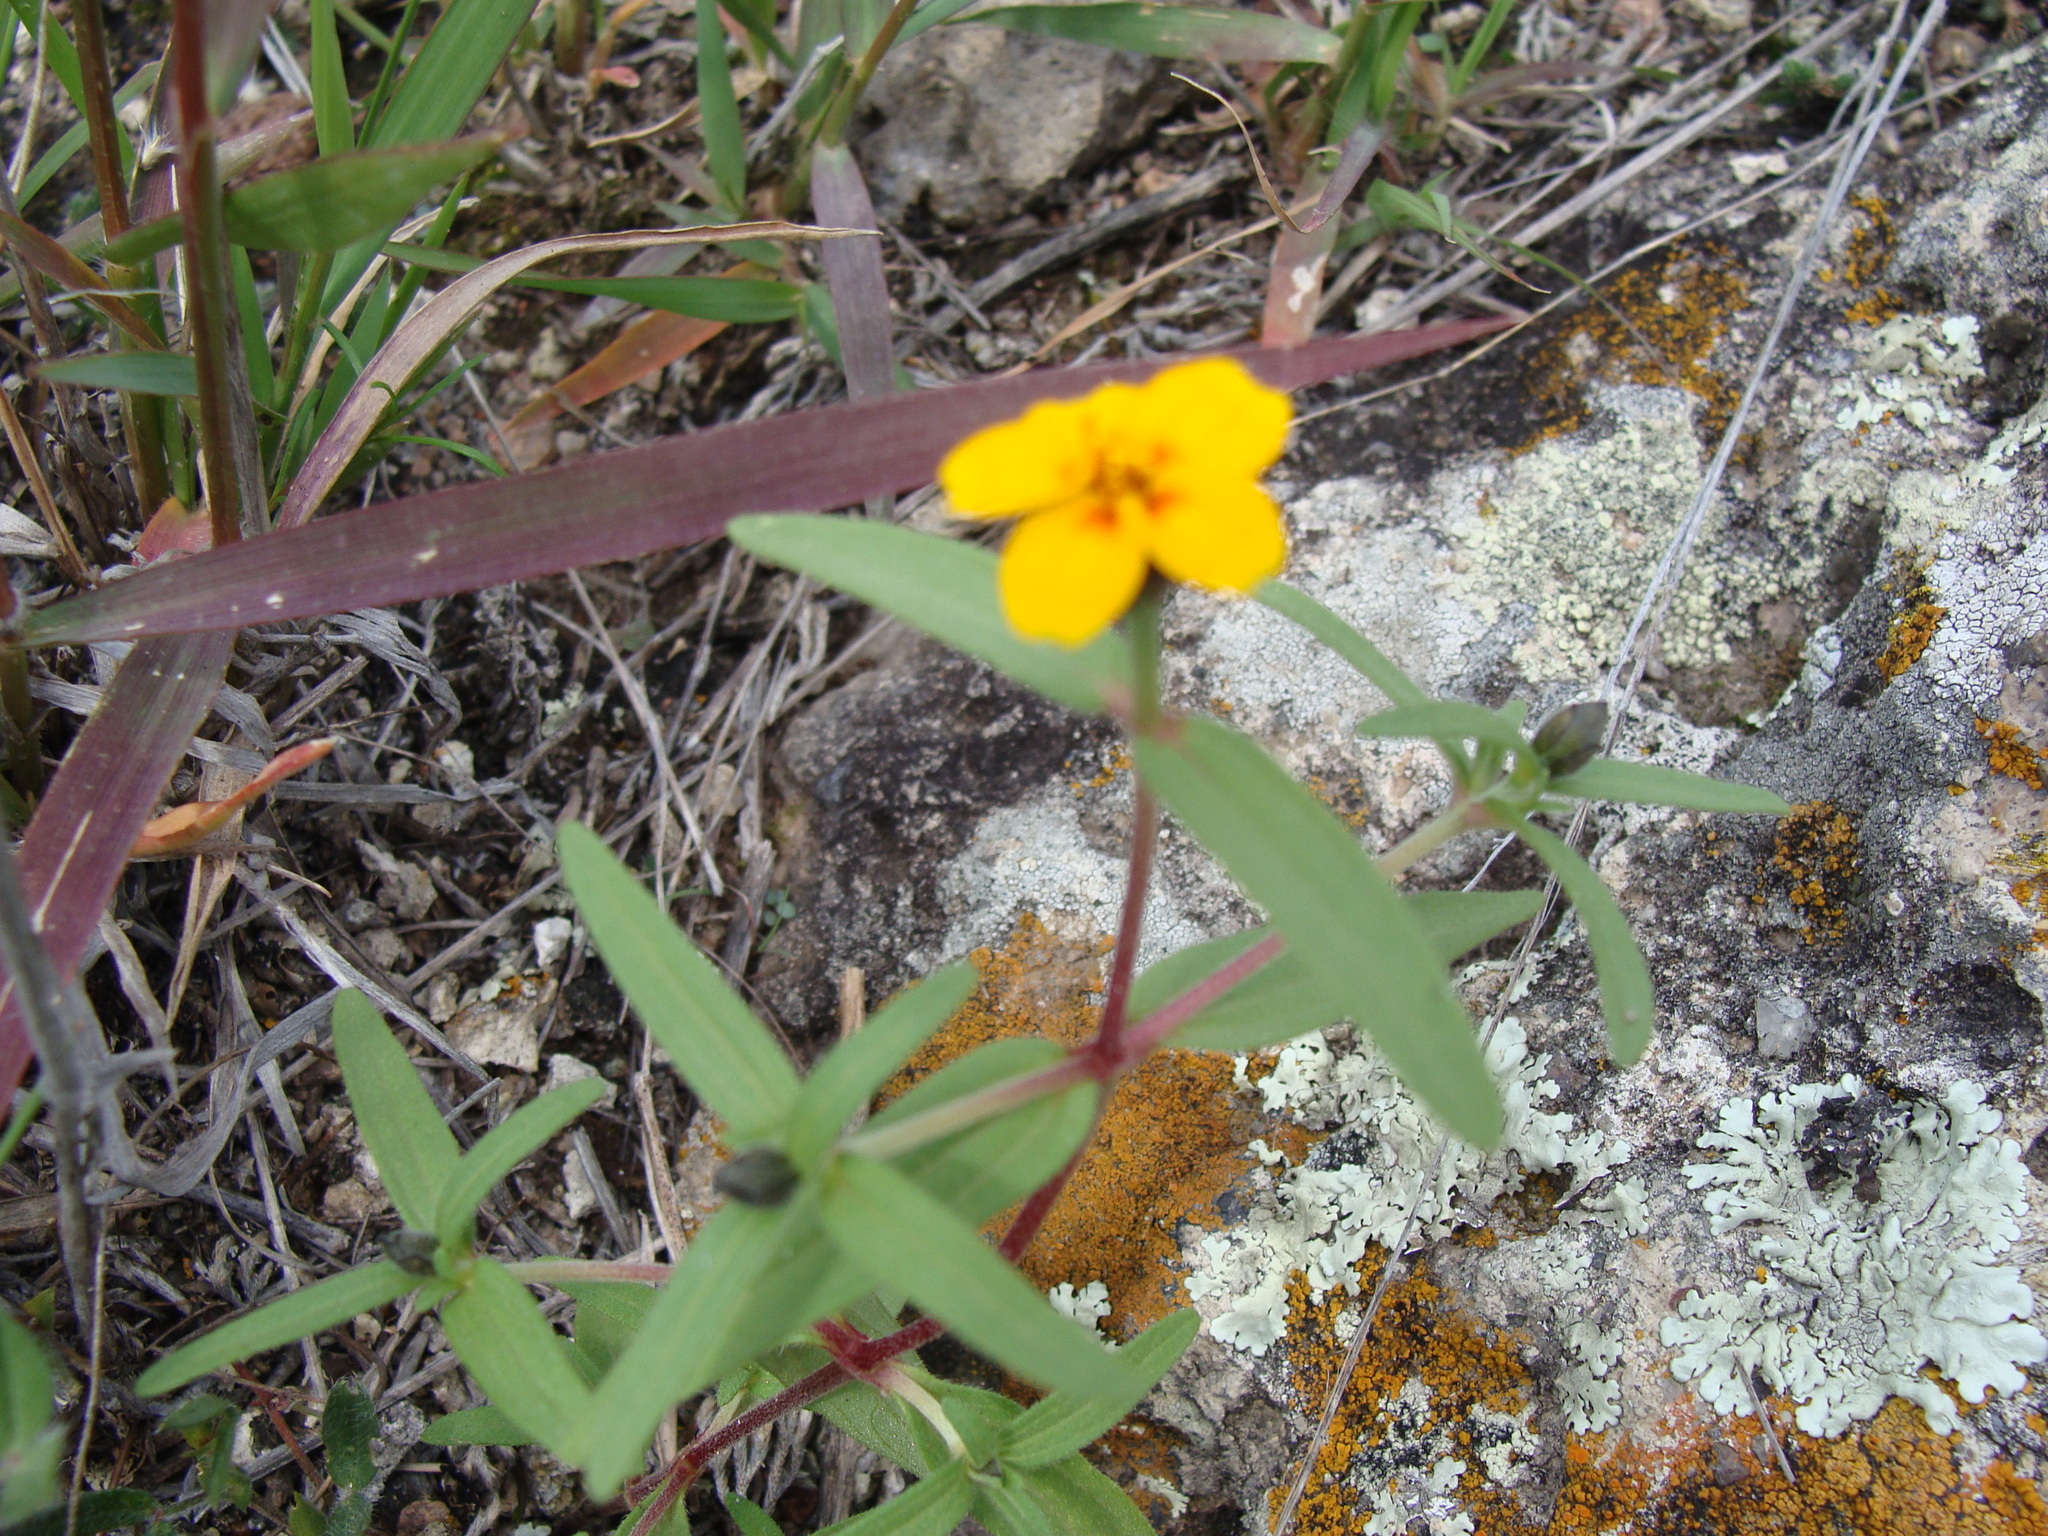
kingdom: Plantae
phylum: Tracheophyta
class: Magnoliopsida
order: Asterales
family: Asteraceae
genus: Zinnia
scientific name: Zinnia bicolor
